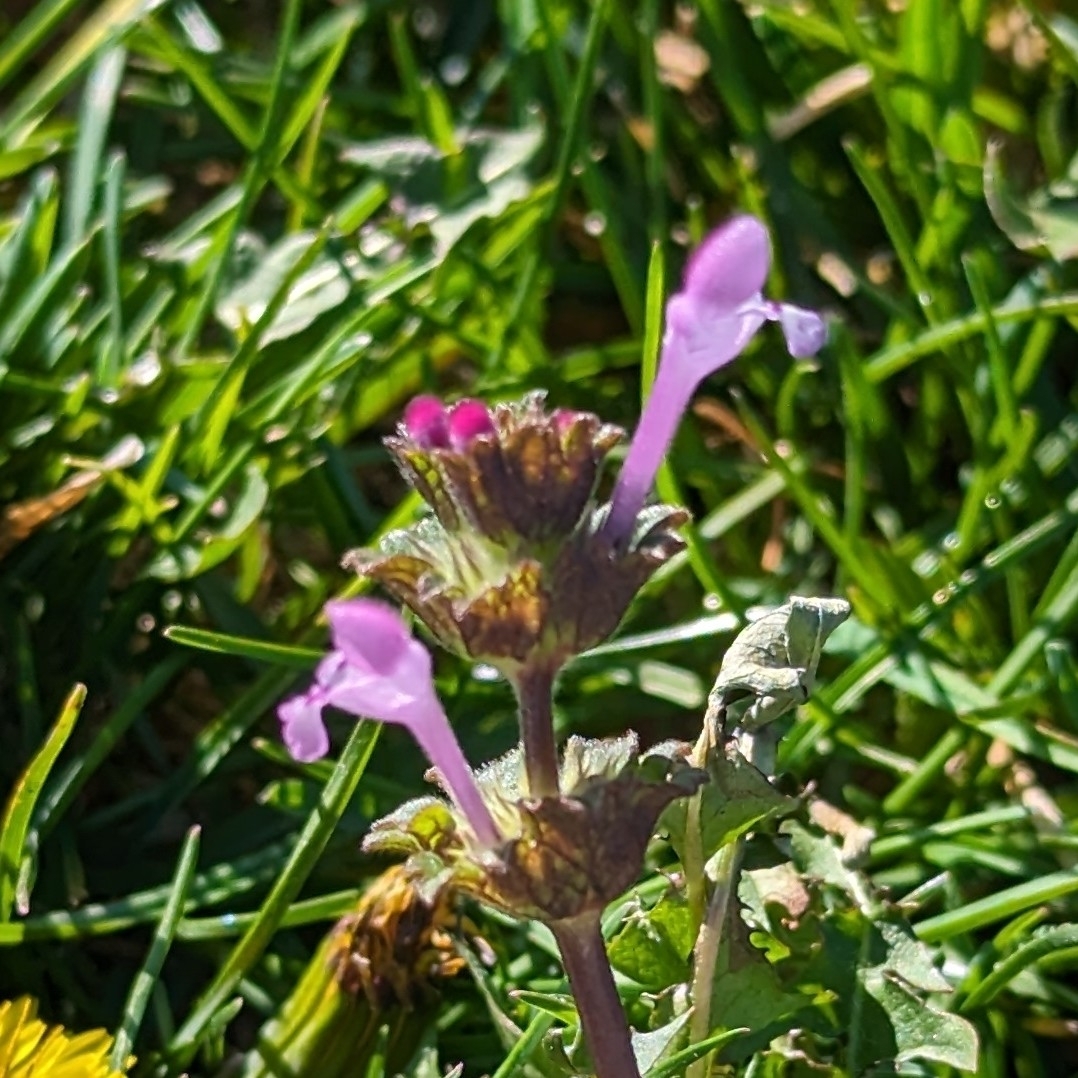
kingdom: Plantae
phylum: Tracheophyta
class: Magnoliopsida
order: Lamiales
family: Lamiaceae
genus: Lamium
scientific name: Lamium amplexicaule
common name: Henbit dead-nettle
